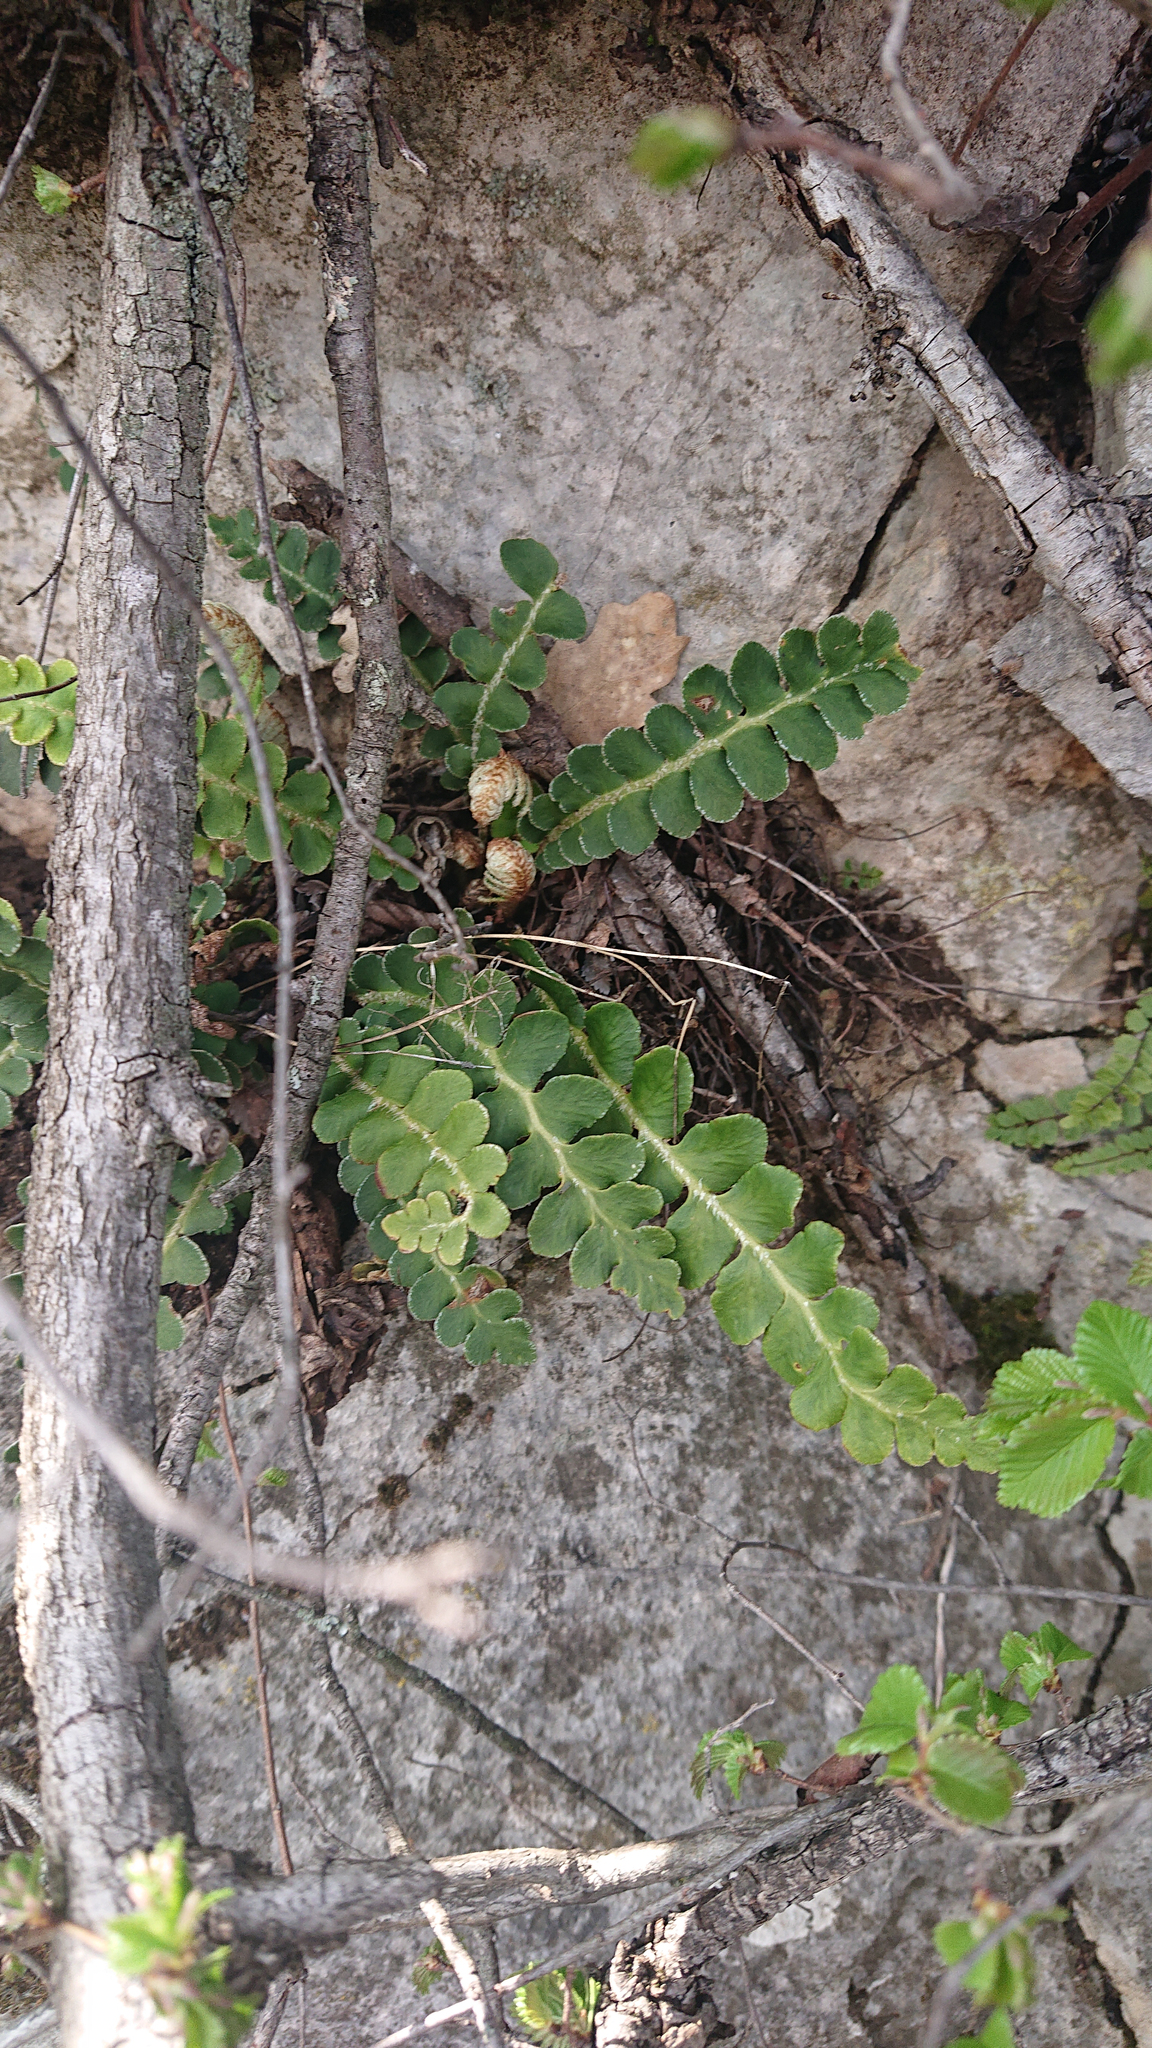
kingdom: Plantae
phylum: Tracheophyta
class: Polypodiopsida
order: Polypodiales
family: Aspleniaceae
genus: Asplenium
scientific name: Asplenium ceterach
